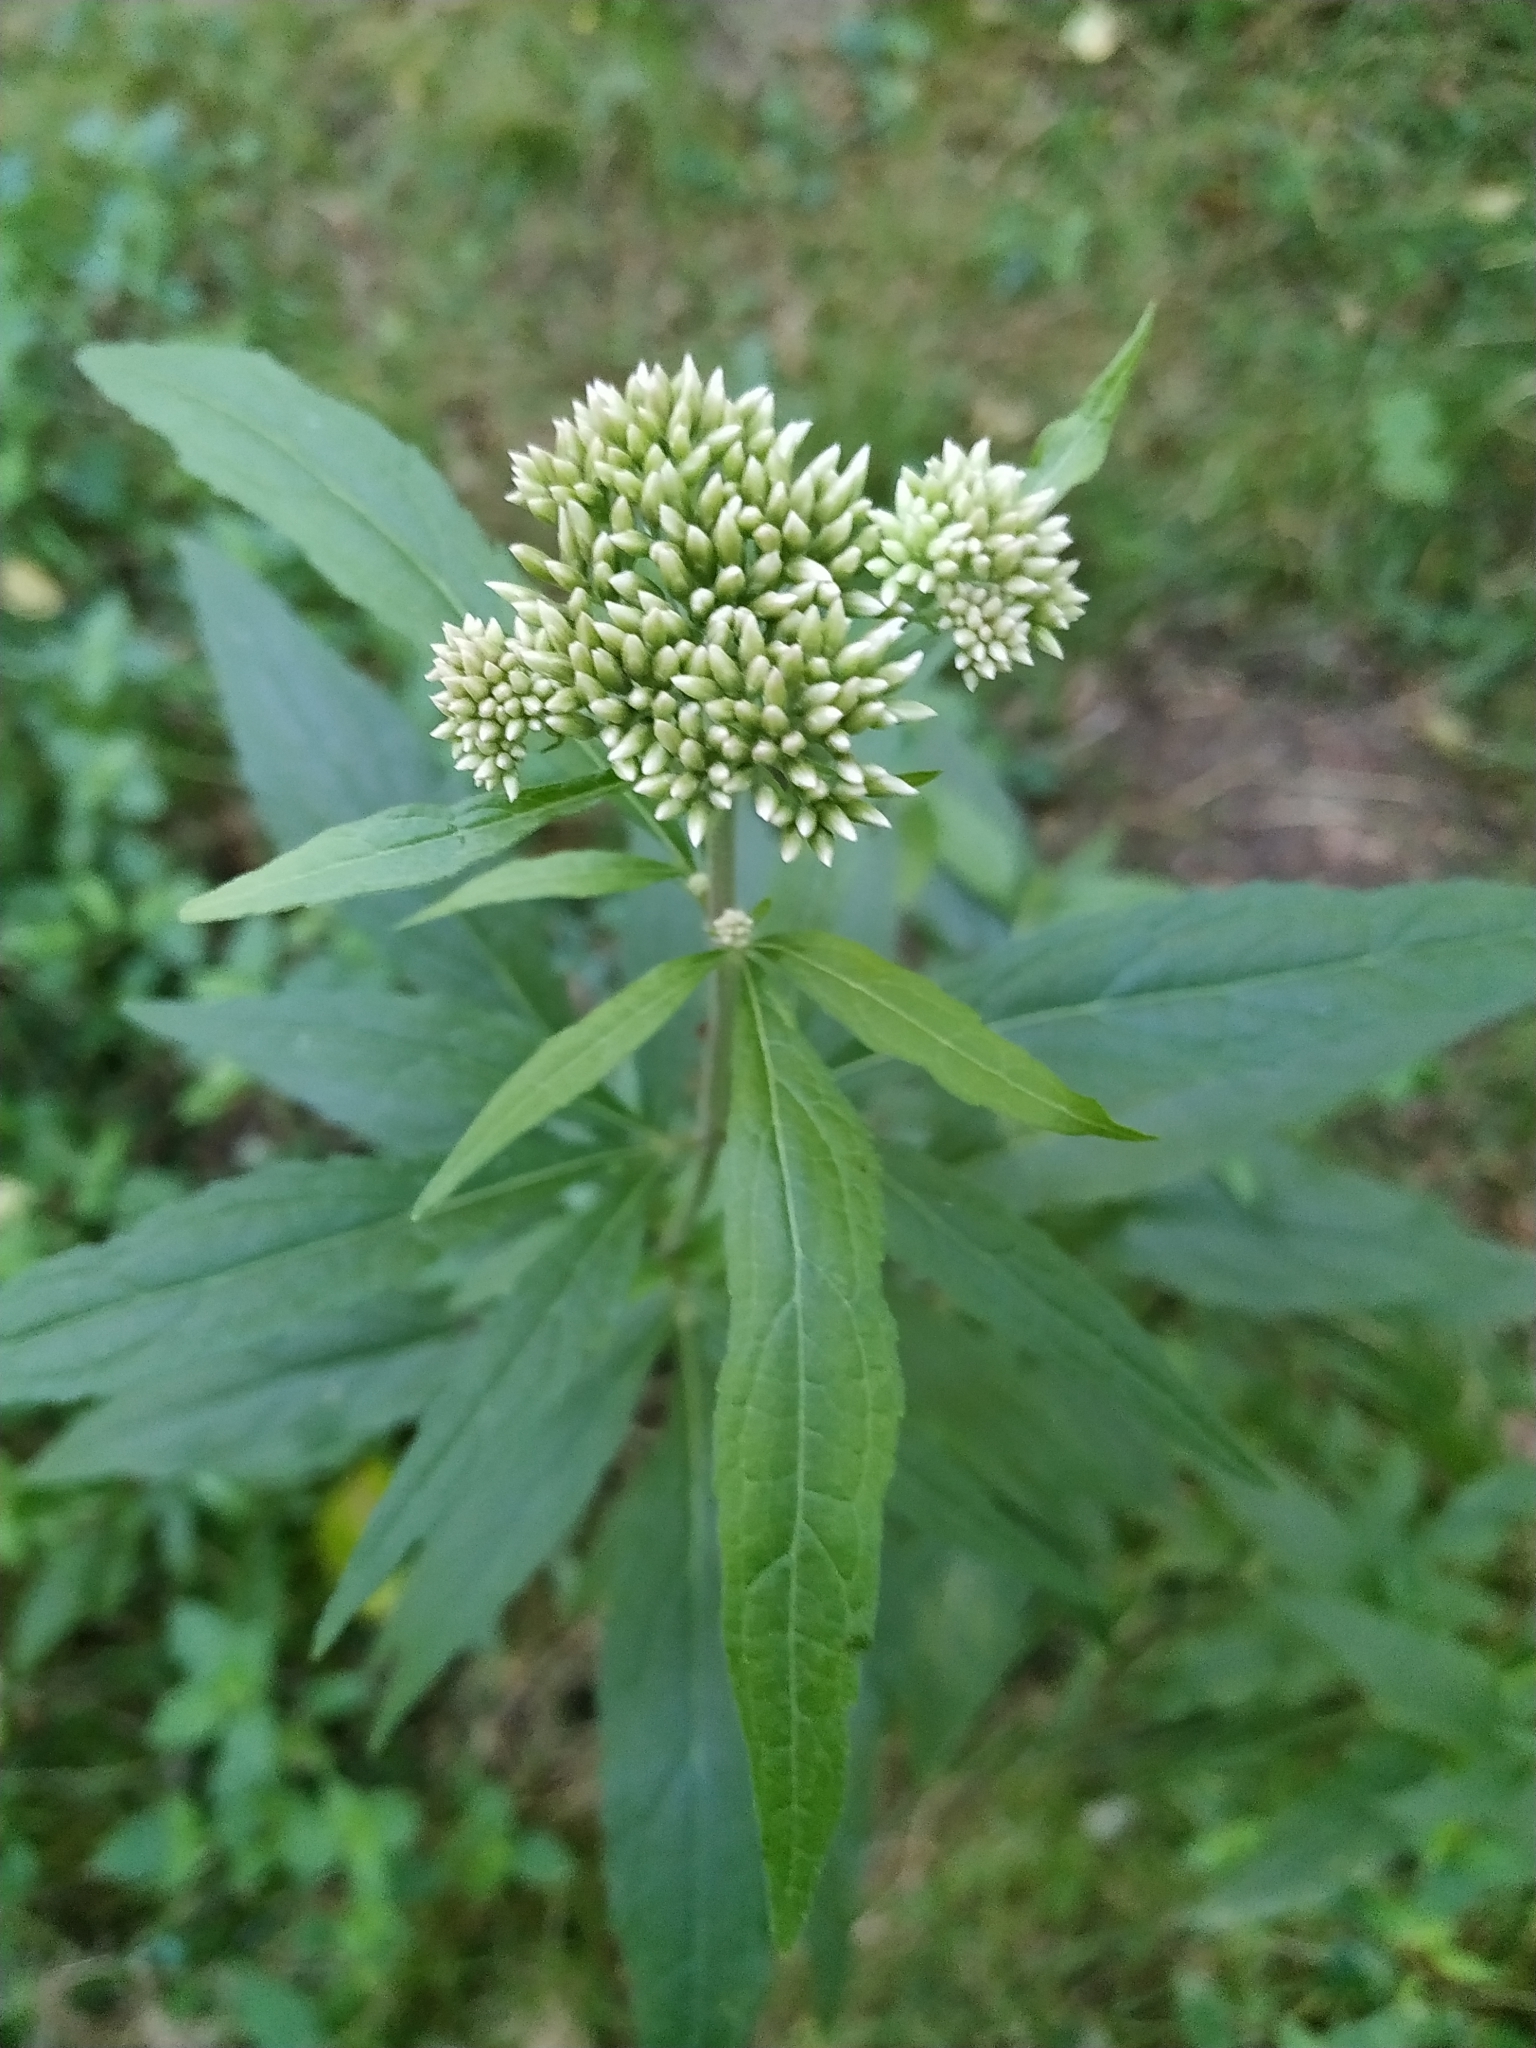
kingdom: Plantae
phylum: Tracheophyta
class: Magnoliopsida
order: Asterales
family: Asteraceae
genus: Eupatorium
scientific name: Eupatorium cannabinum
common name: Hemp-agrimony
